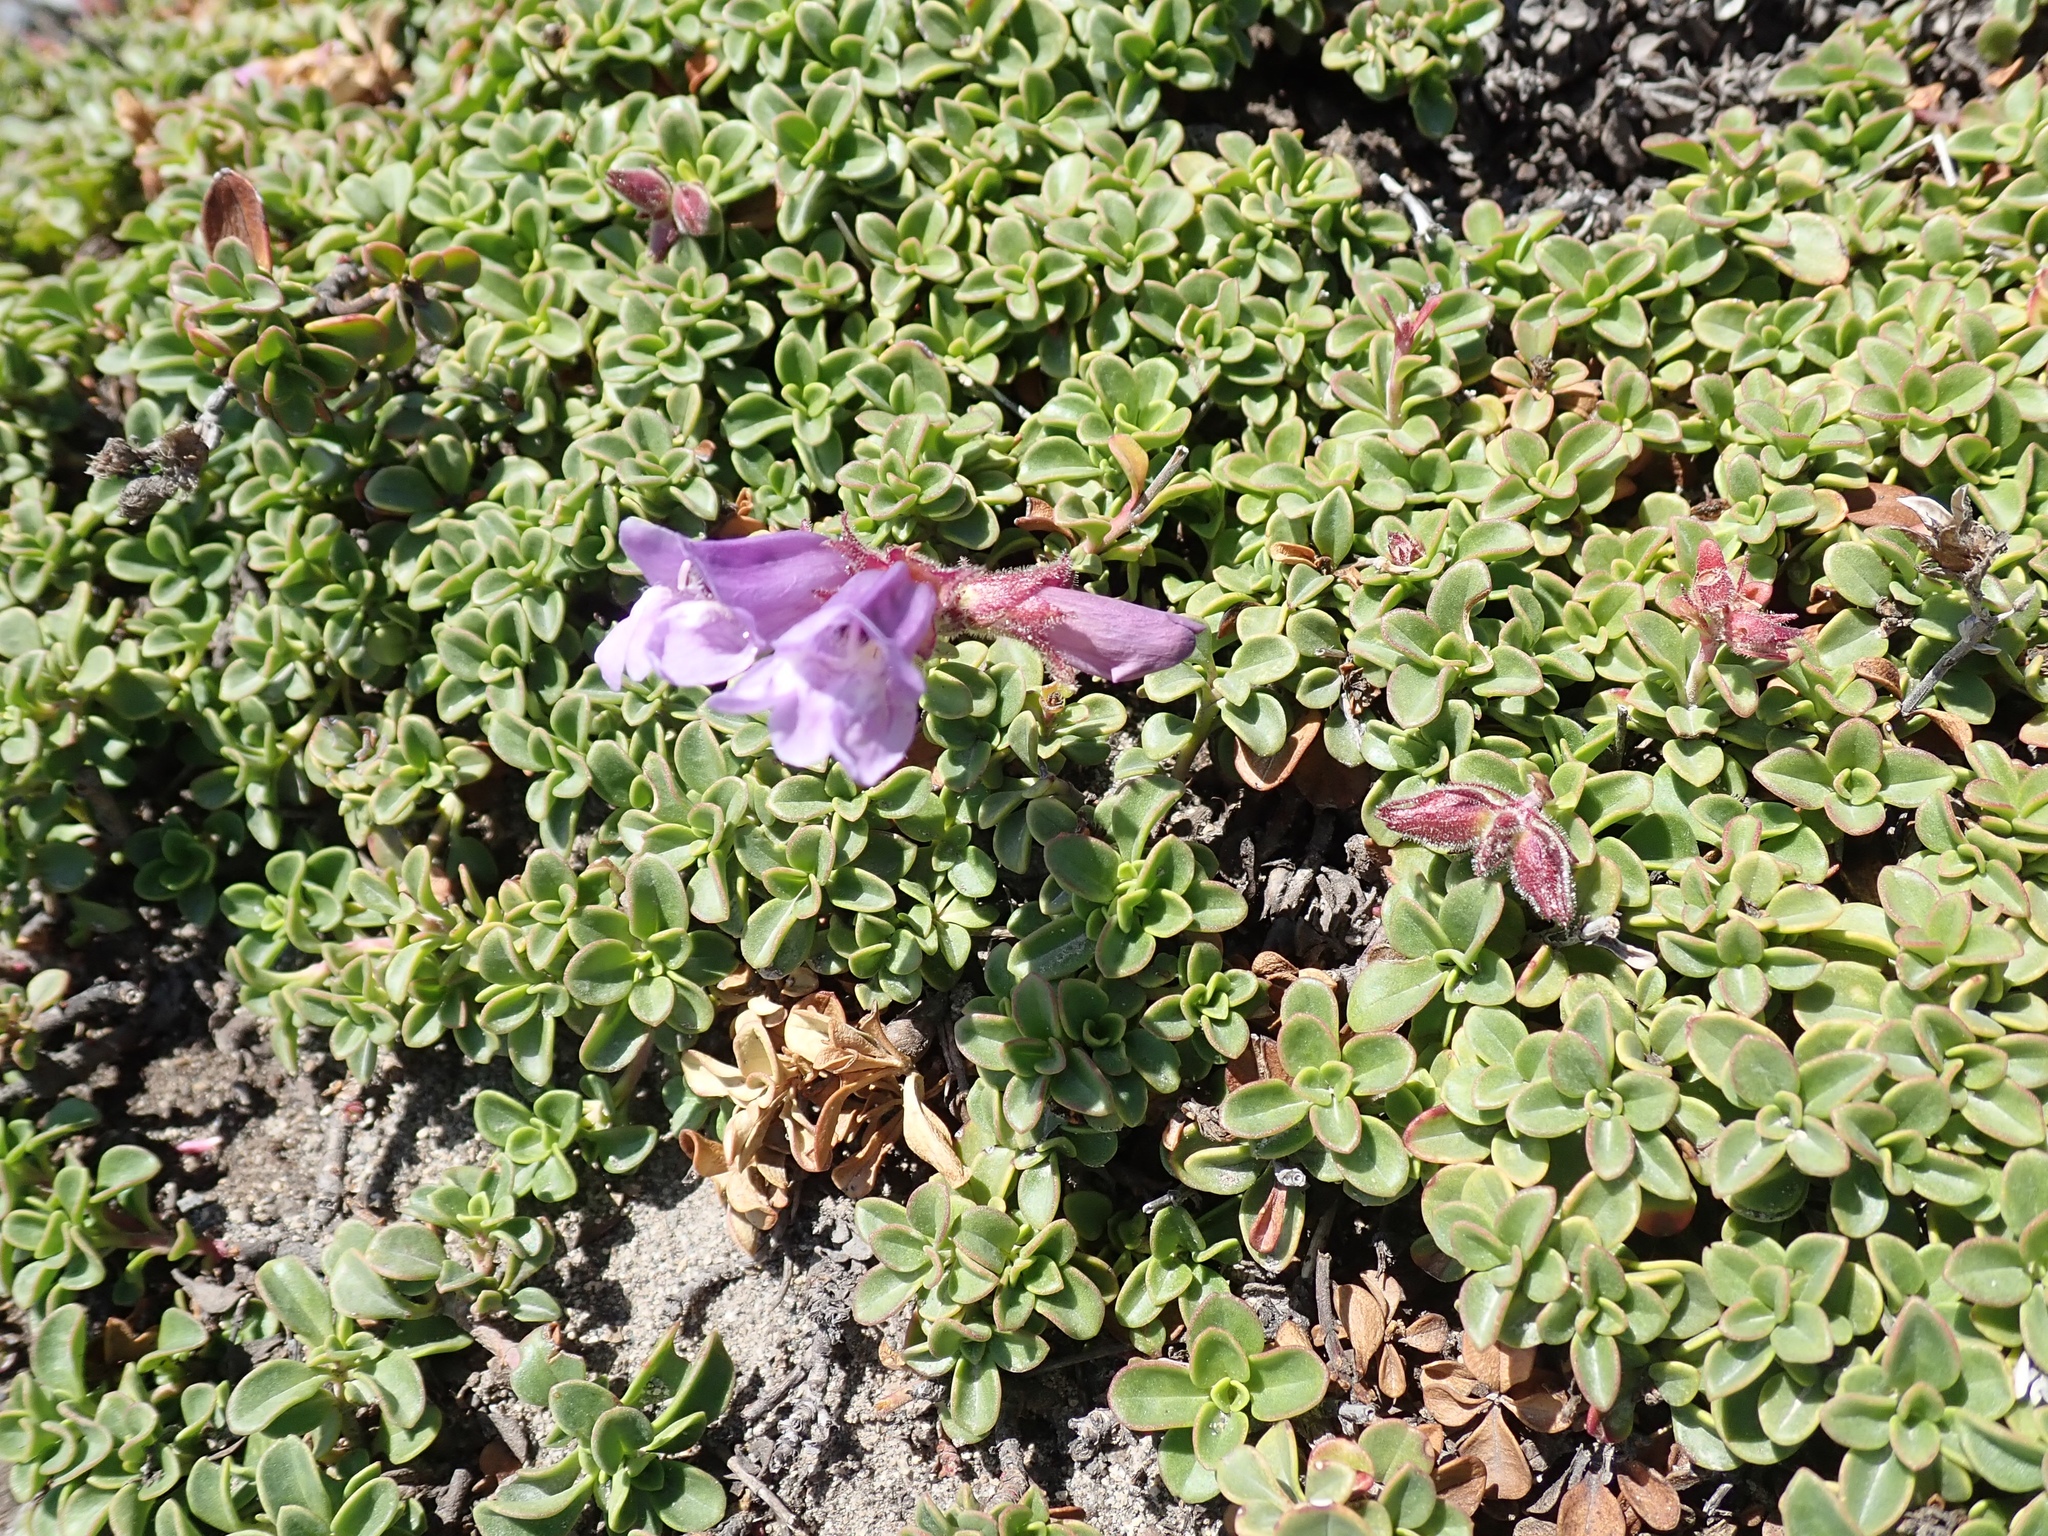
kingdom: Plantae
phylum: Tracheophyta
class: Magnoliopsida
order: Lamiales
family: Plantaginaceae
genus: Penstemon
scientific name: Penstemon davidsonii
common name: Davidson's penstemon
